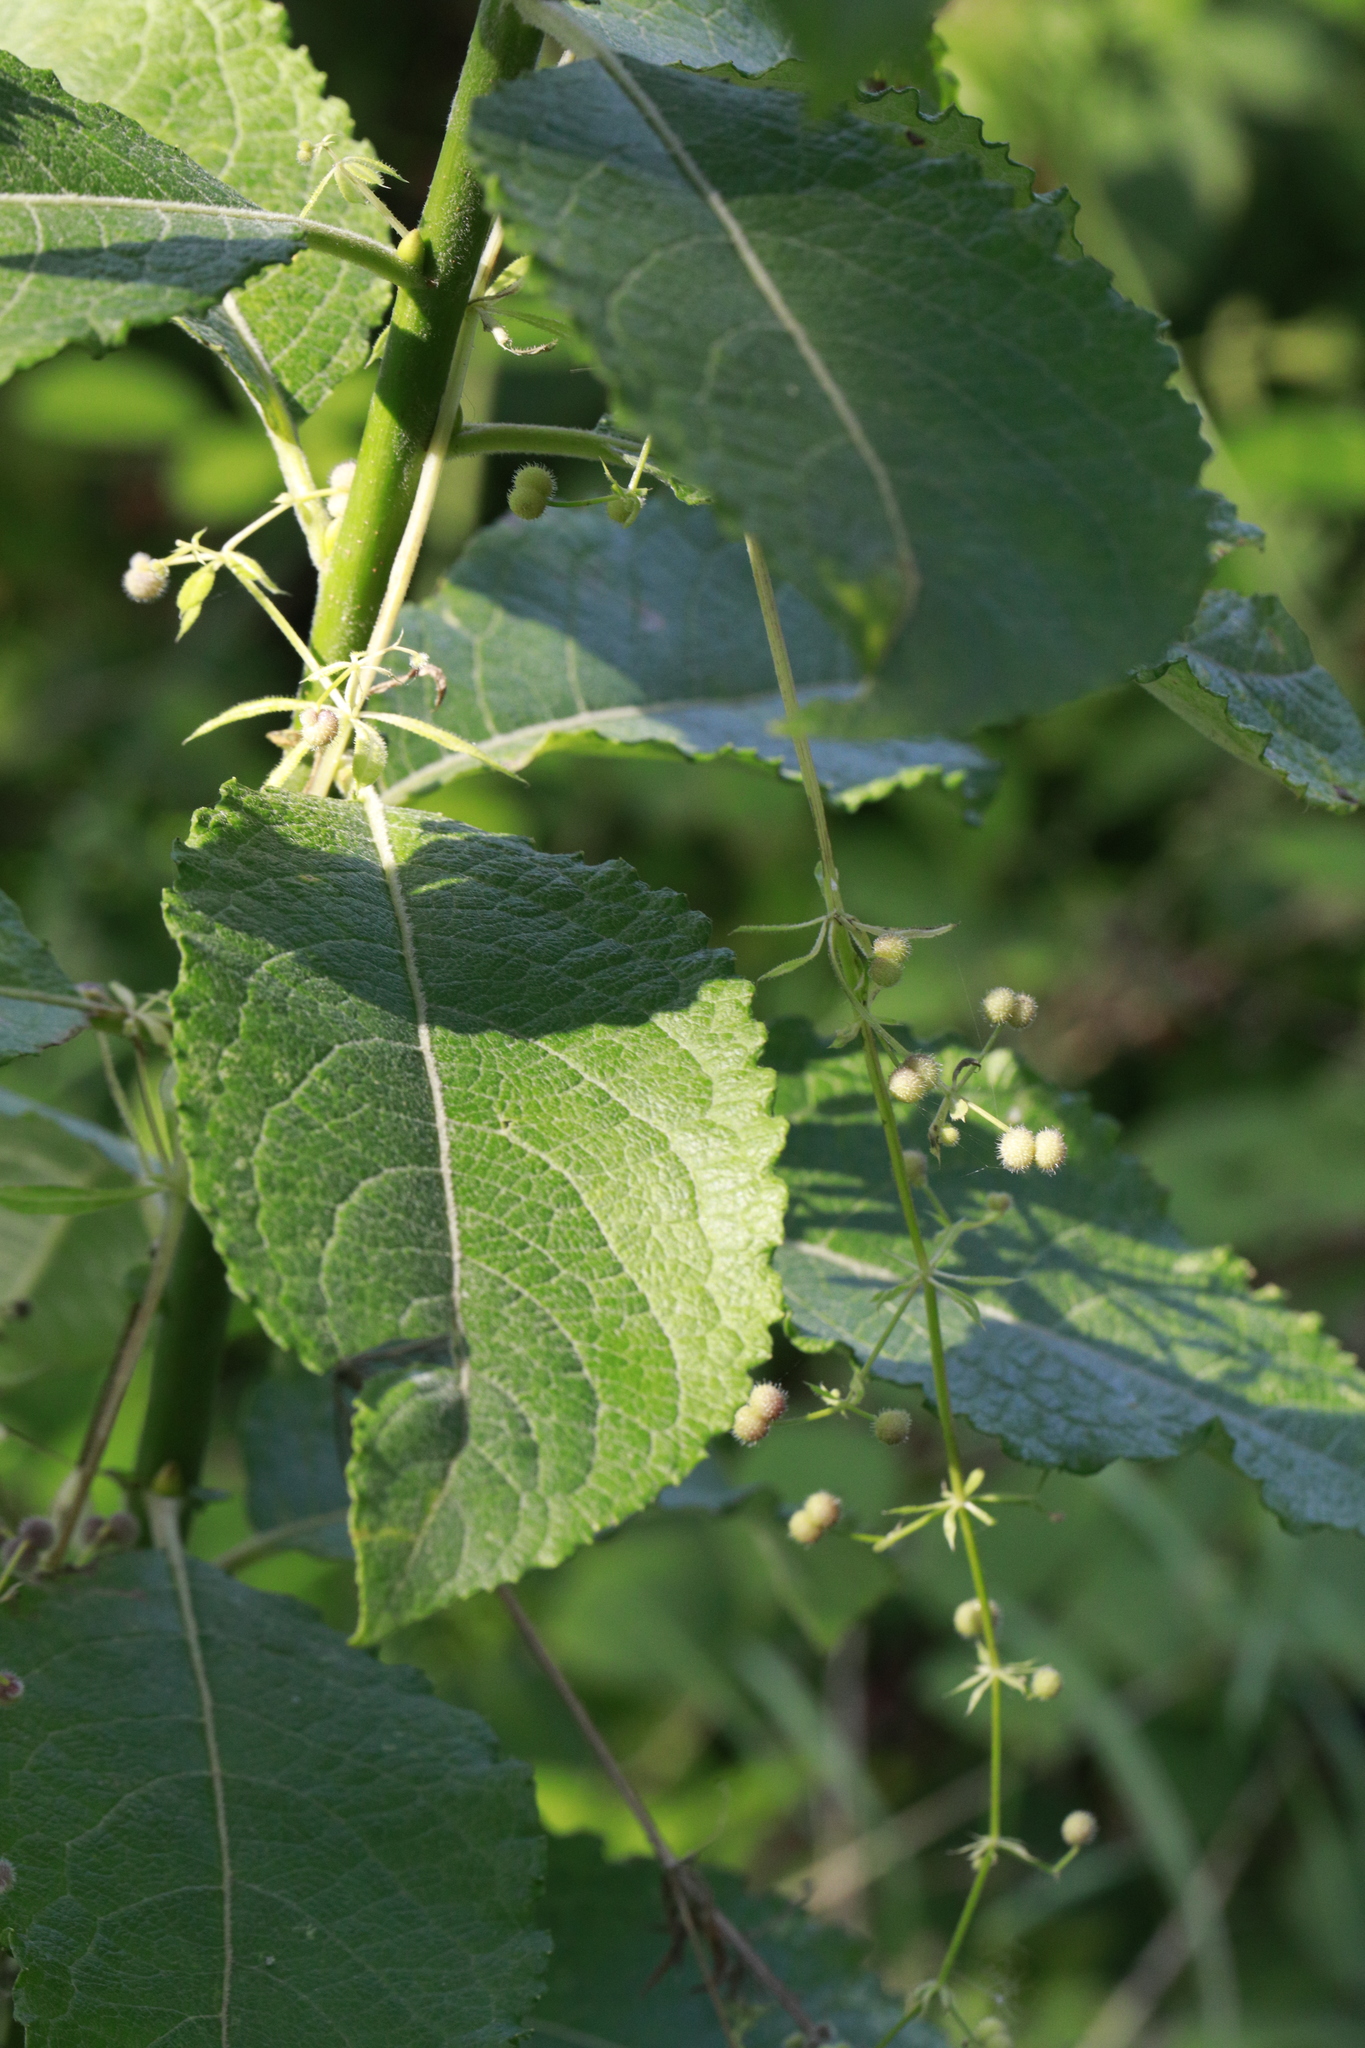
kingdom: Plantae
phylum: Tracheophyta
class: Magnoliopsida
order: Malpighiales
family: Salicaceae
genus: Salix
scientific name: Salix caprea
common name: Goat willow
